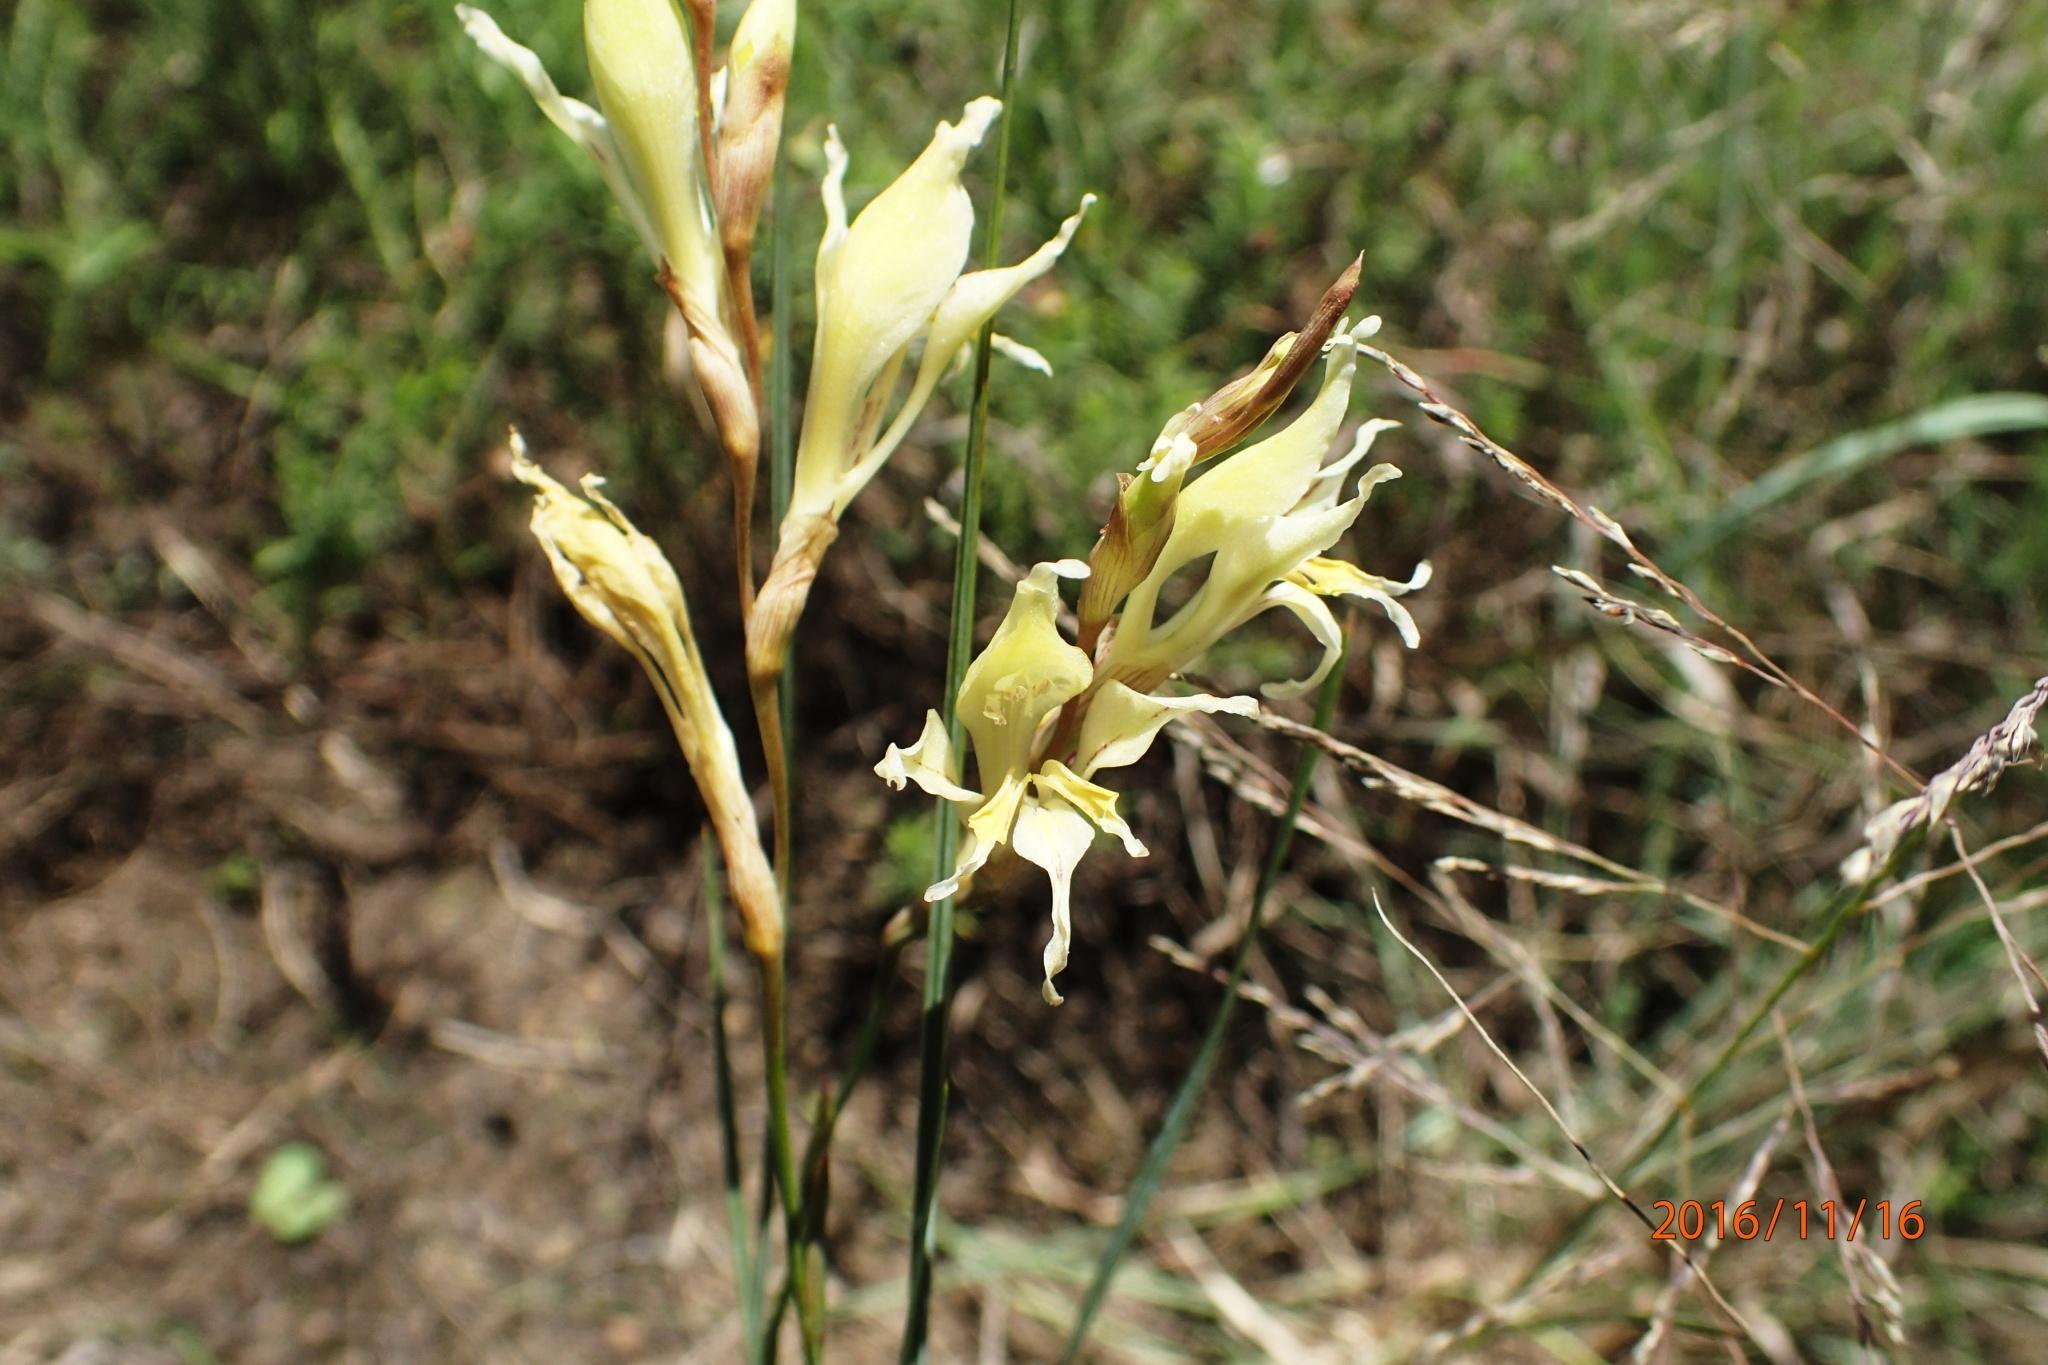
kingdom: Plantae
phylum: Tracheophyta
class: Liliopsida
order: Asparagales
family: Iridaceae
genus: Gladiolus
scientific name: Gladiolus permeabilis
